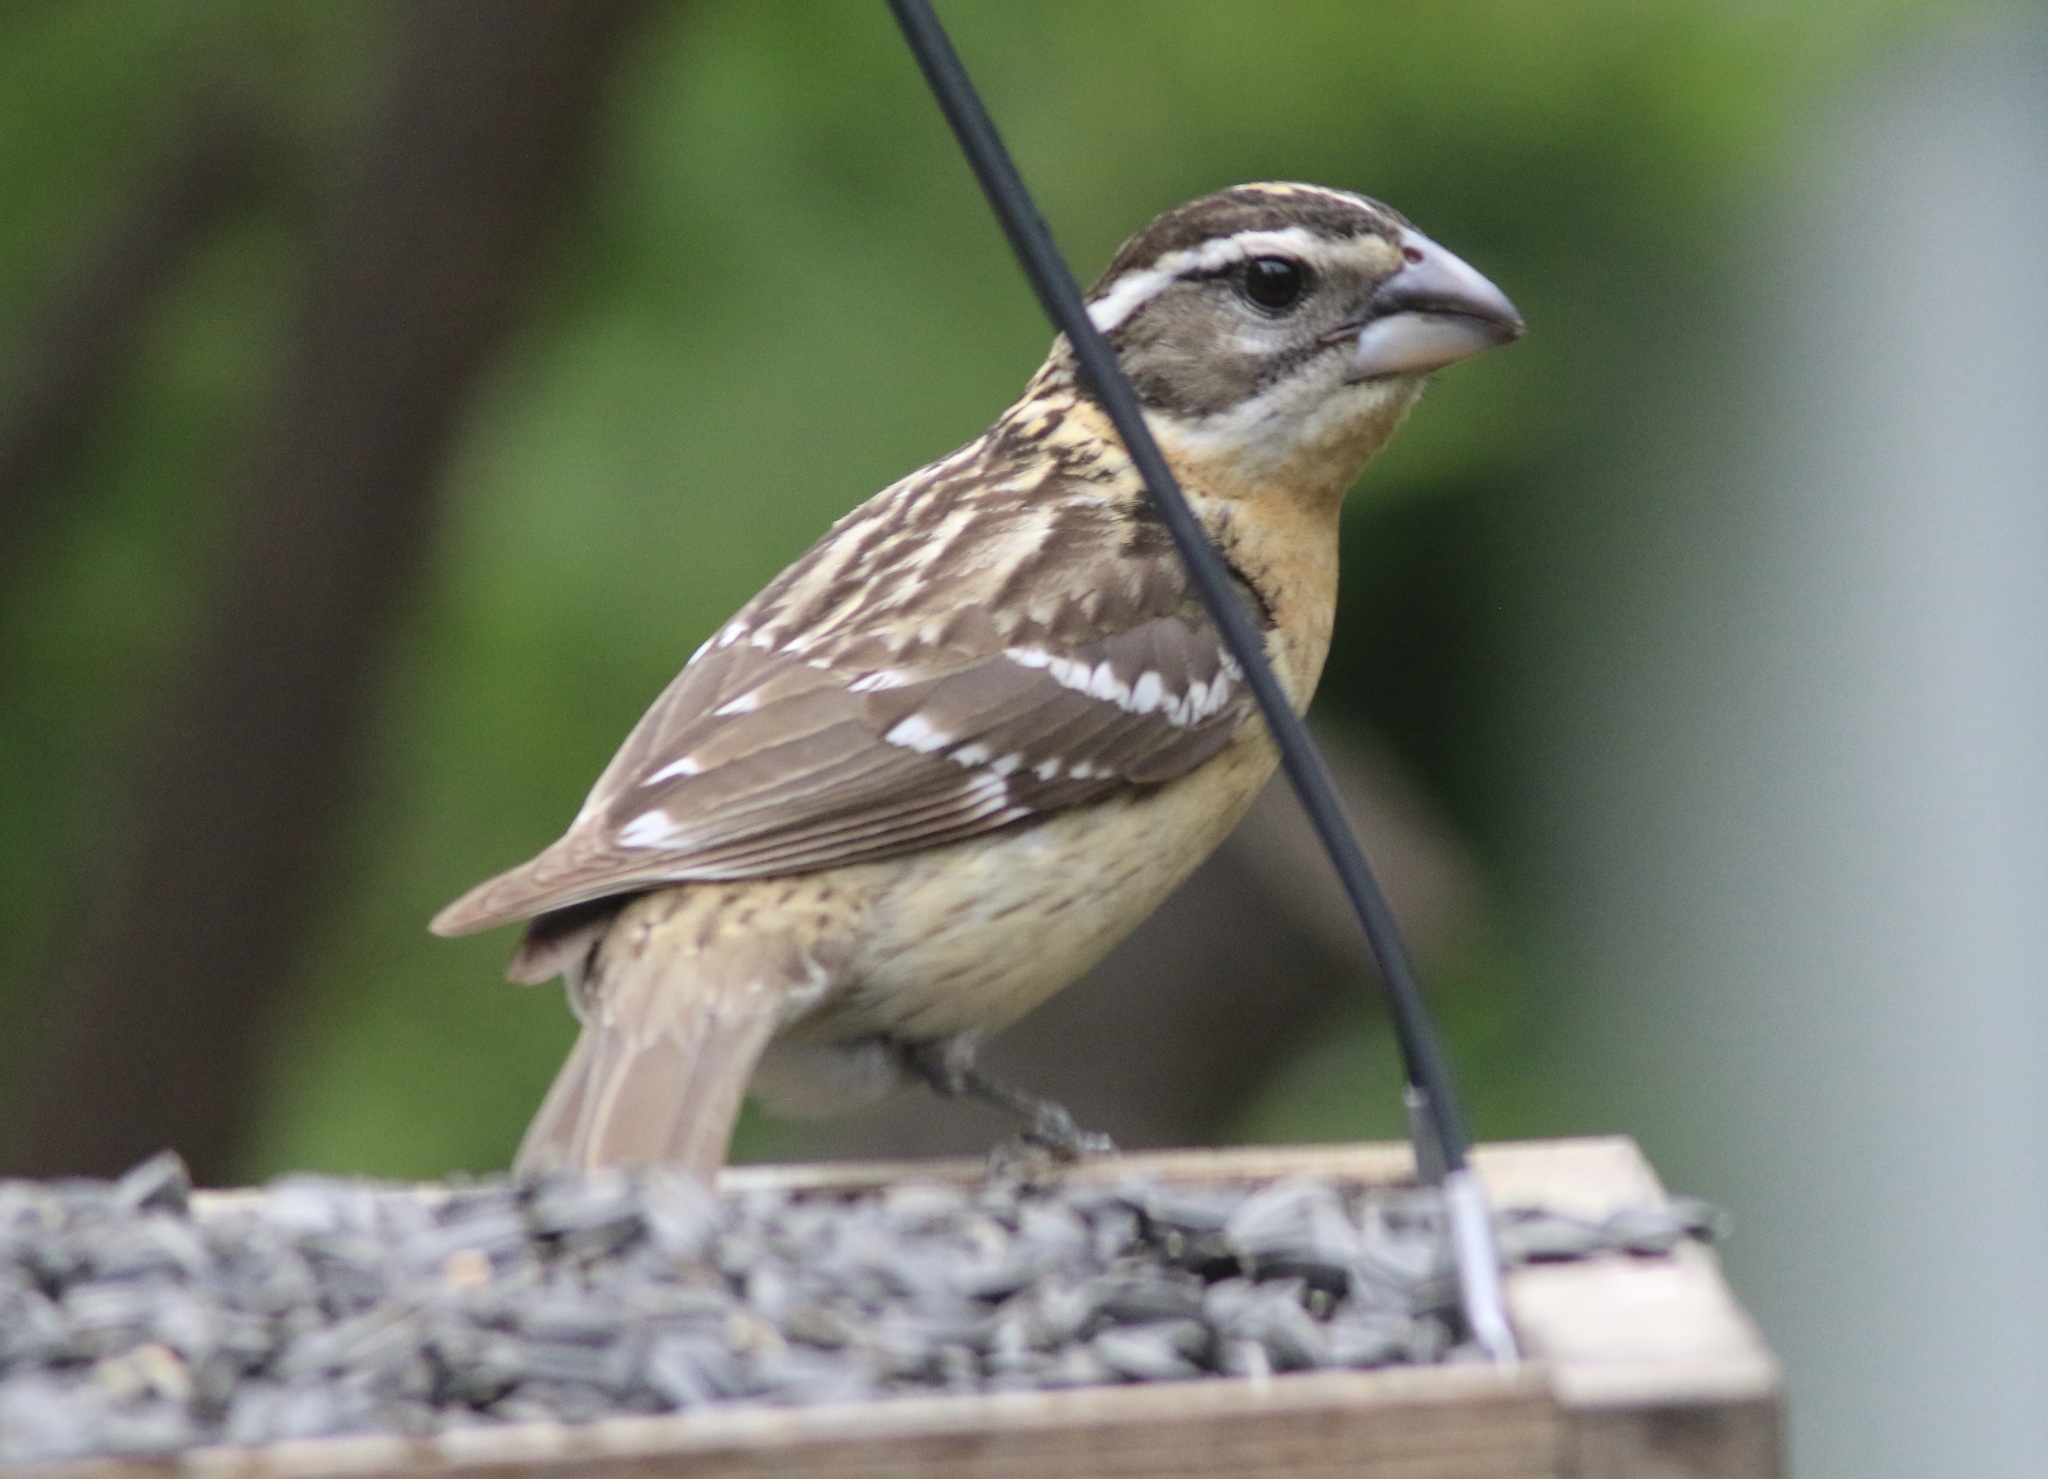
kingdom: Animalia
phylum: Chordata
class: Aves
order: Passeriformes
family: Cardinalidae
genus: Pheucticus
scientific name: Pheucticus melanocephalus
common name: Black-headed grosbeak
